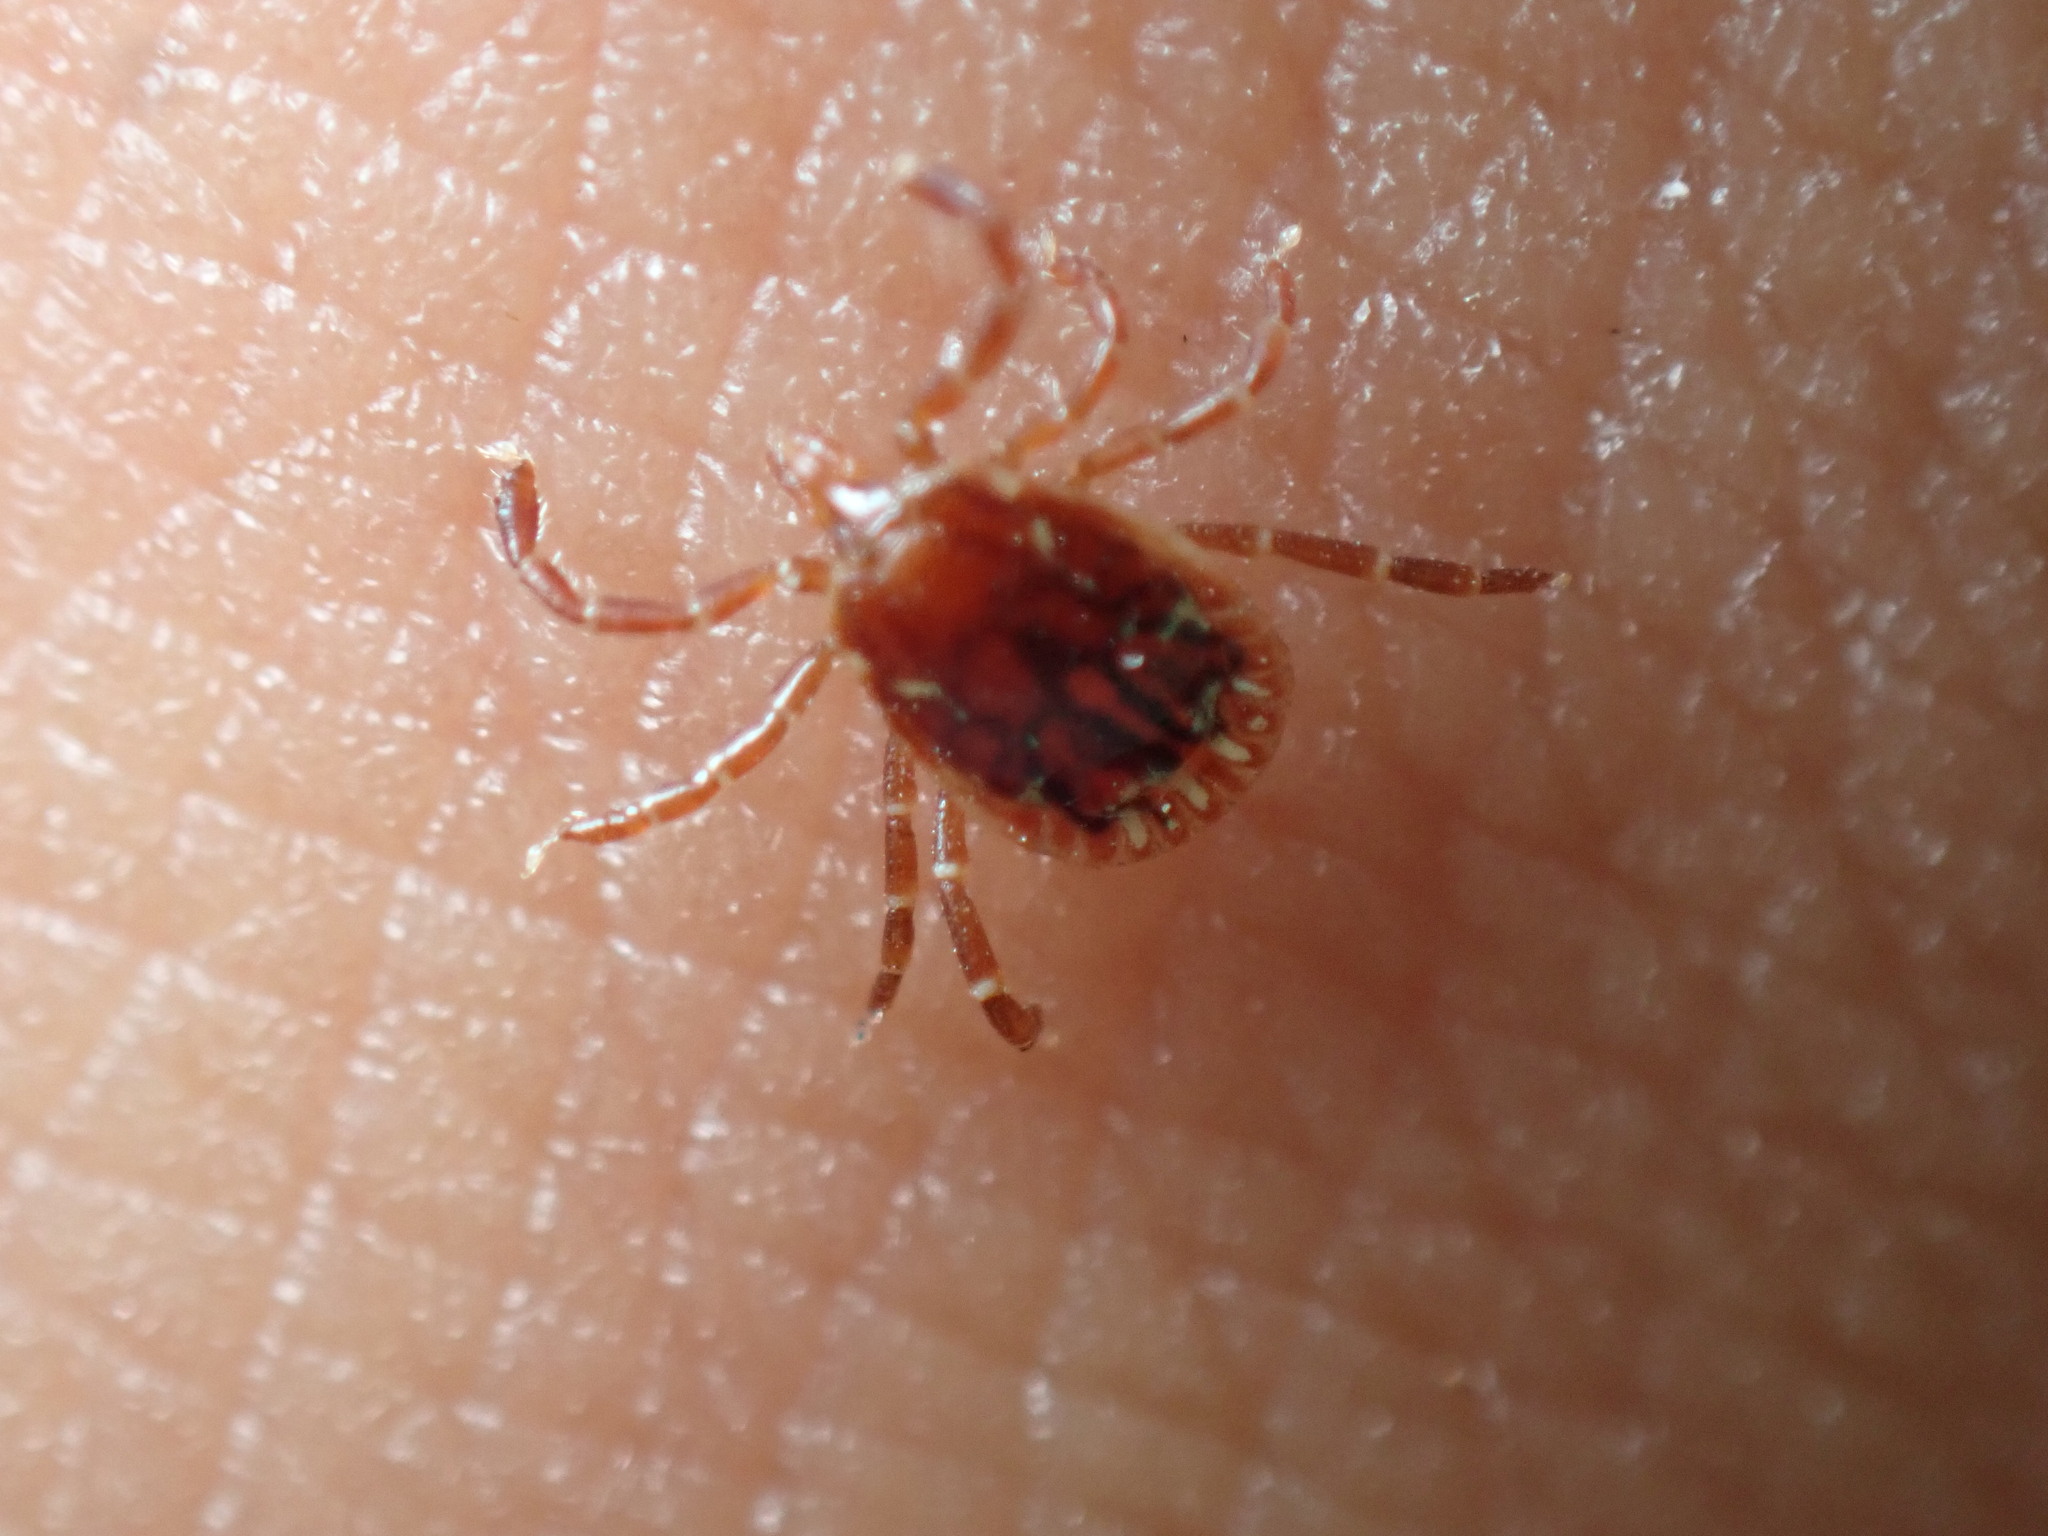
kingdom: Animalia
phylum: Arthropoda
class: Arachnida
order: Ixodida
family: Ixodidae
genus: Amblyomma
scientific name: Amblyomma americanum
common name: Lone star tick
